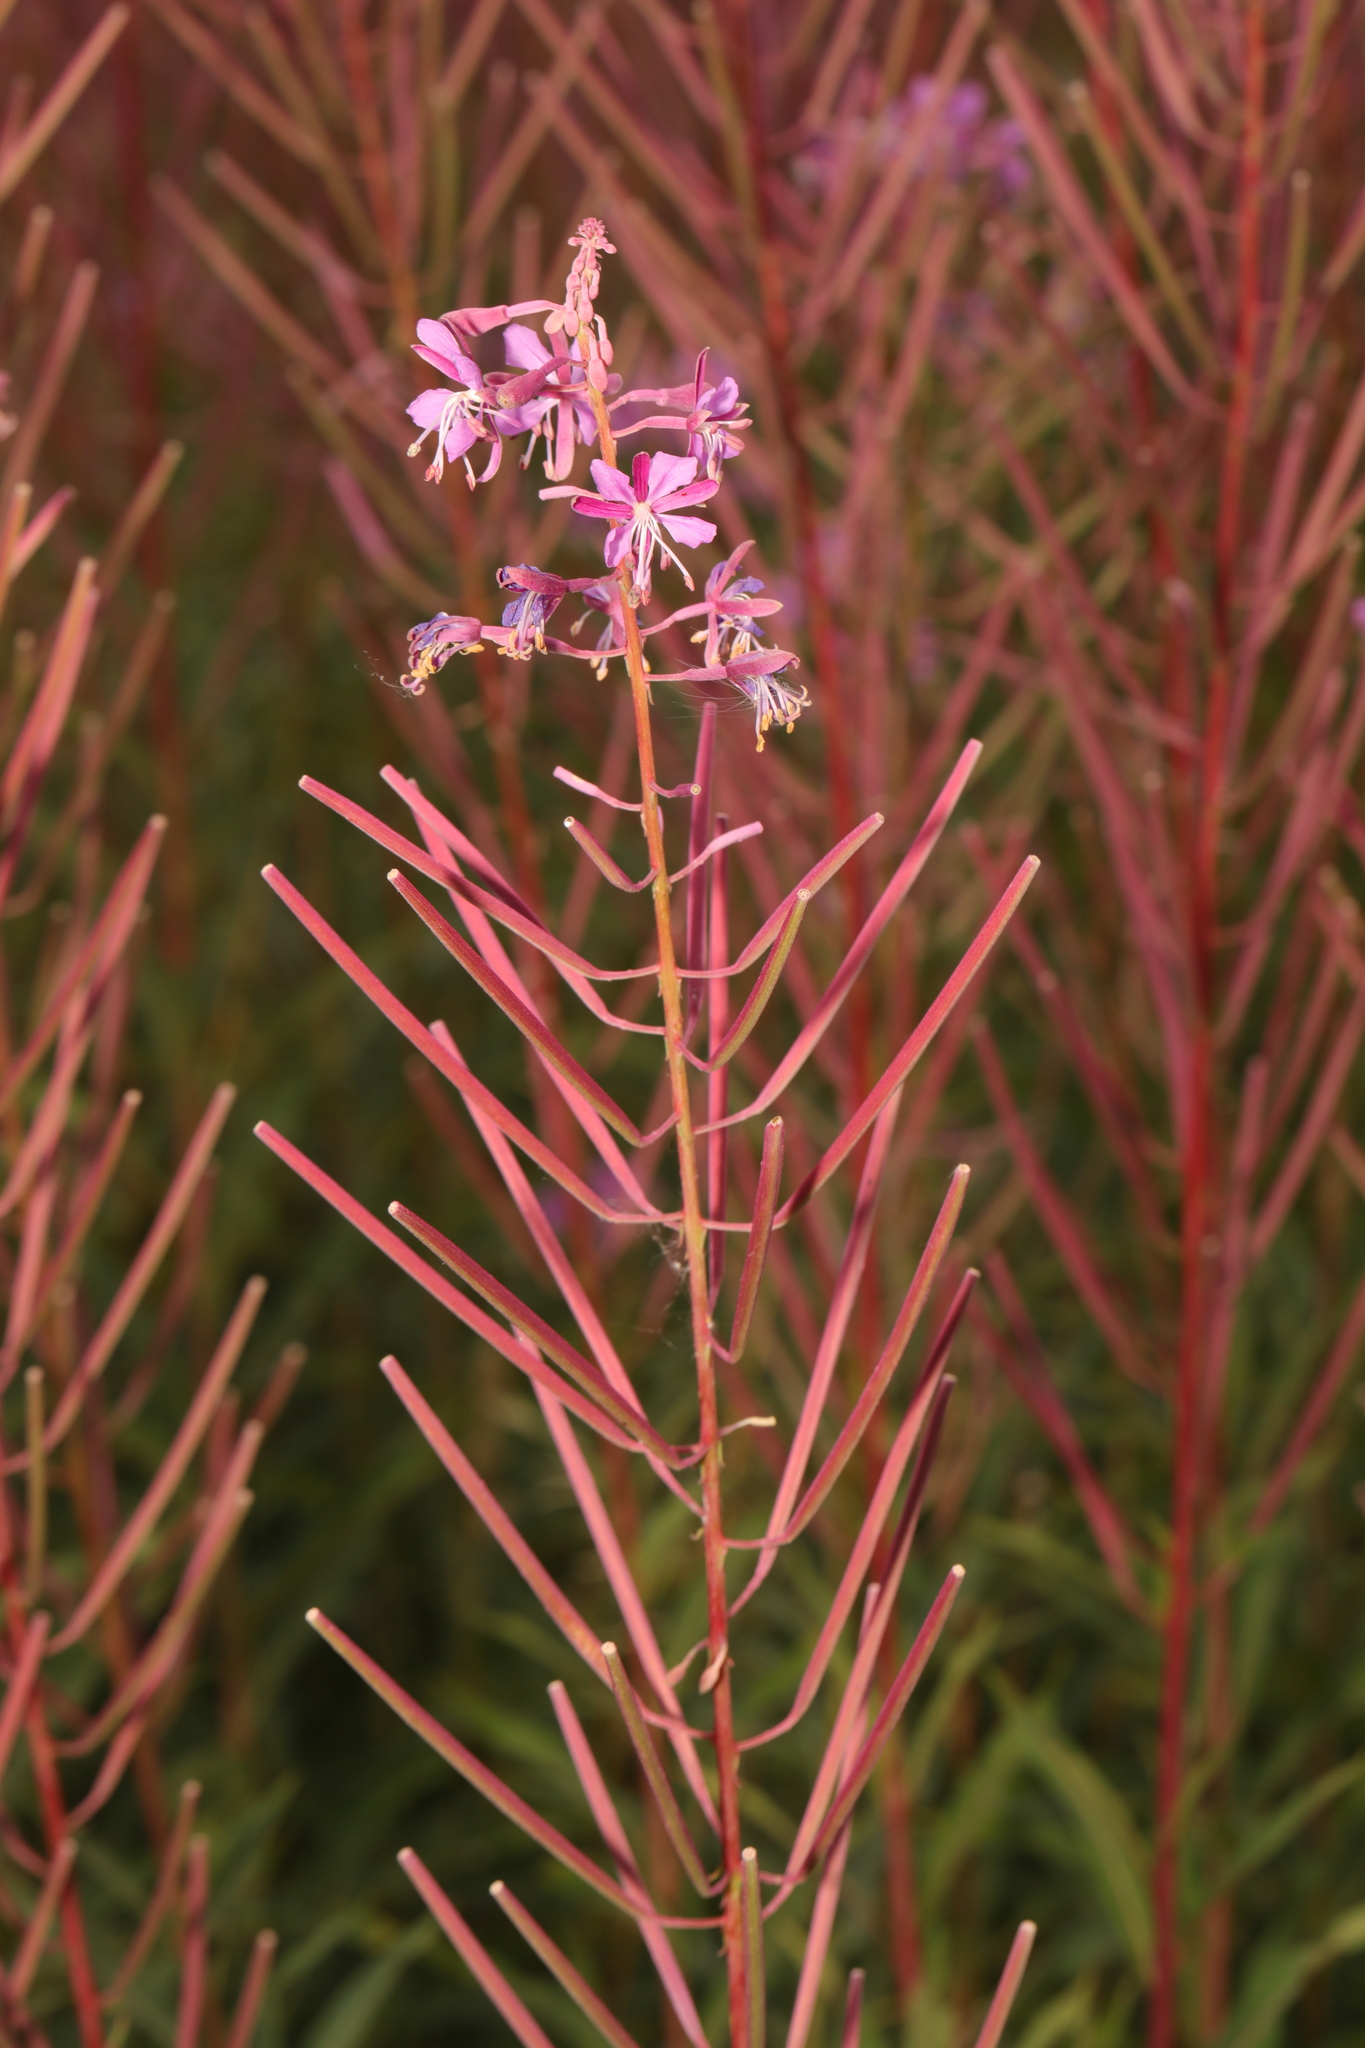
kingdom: Plantae
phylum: Tracheophyta
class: Magnoliopsida
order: Myrtales
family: Onagraceae
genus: Chamaenerion
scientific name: Chamaenerion angustifolium
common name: Fireweed
